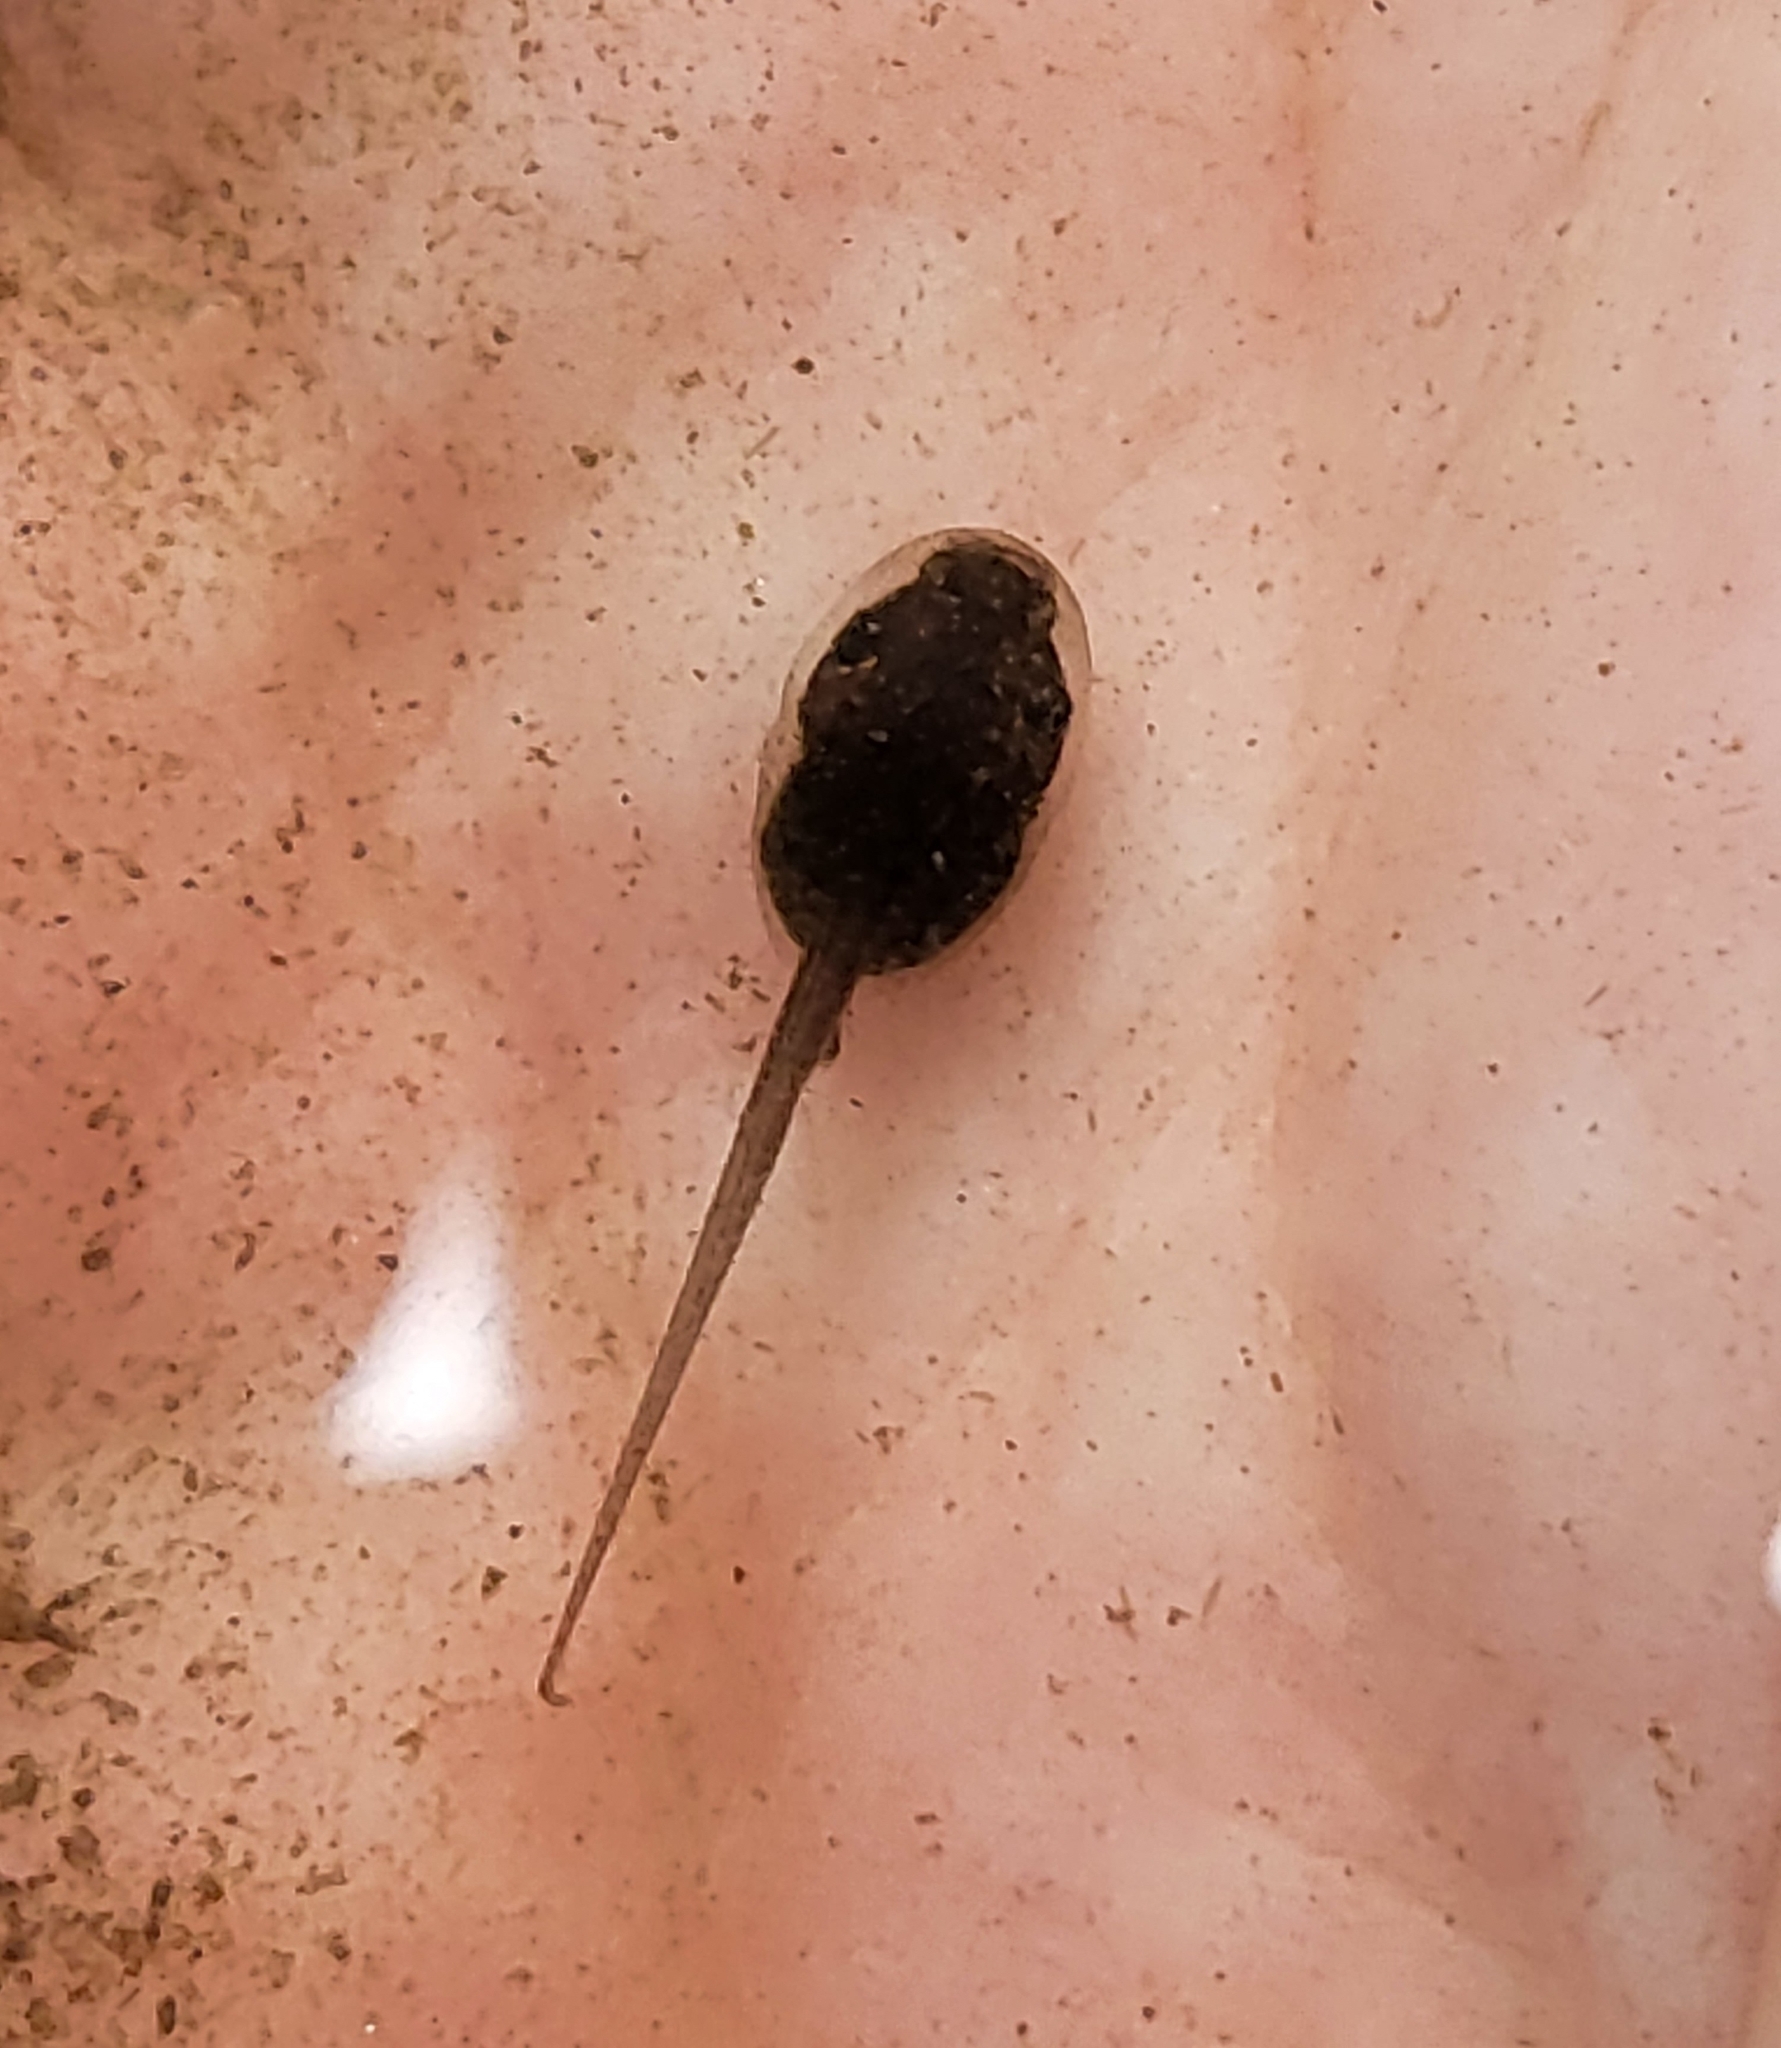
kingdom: Animalia
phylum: Chordata
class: Amphibia
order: Anura
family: Hylidae
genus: Pseudacris
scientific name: Pseudacris regilla
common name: Pacific chorus frog
